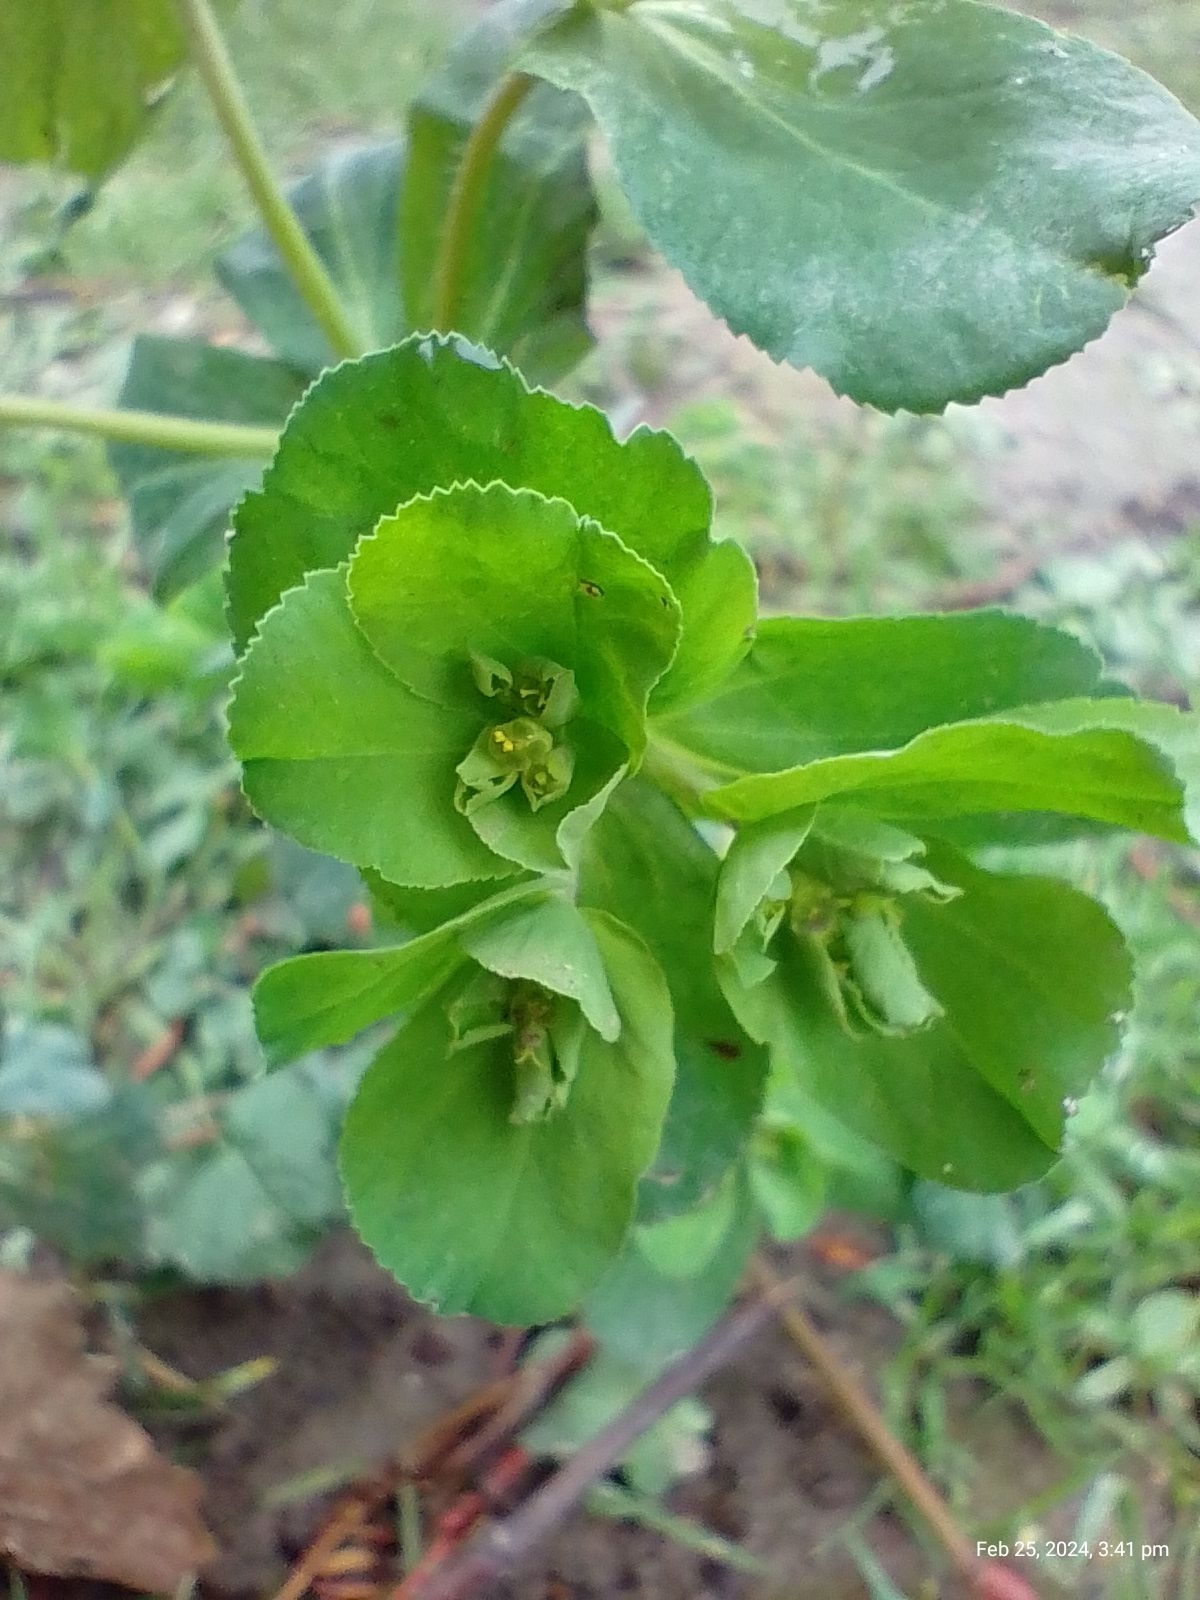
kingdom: Plantae
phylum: Tracheophyta
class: Magnoliopsida
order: Malpighiales
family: Euphorbiaceae
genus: Euphorbia
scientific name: Euphorbia helioscopia
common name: Sun spurge
